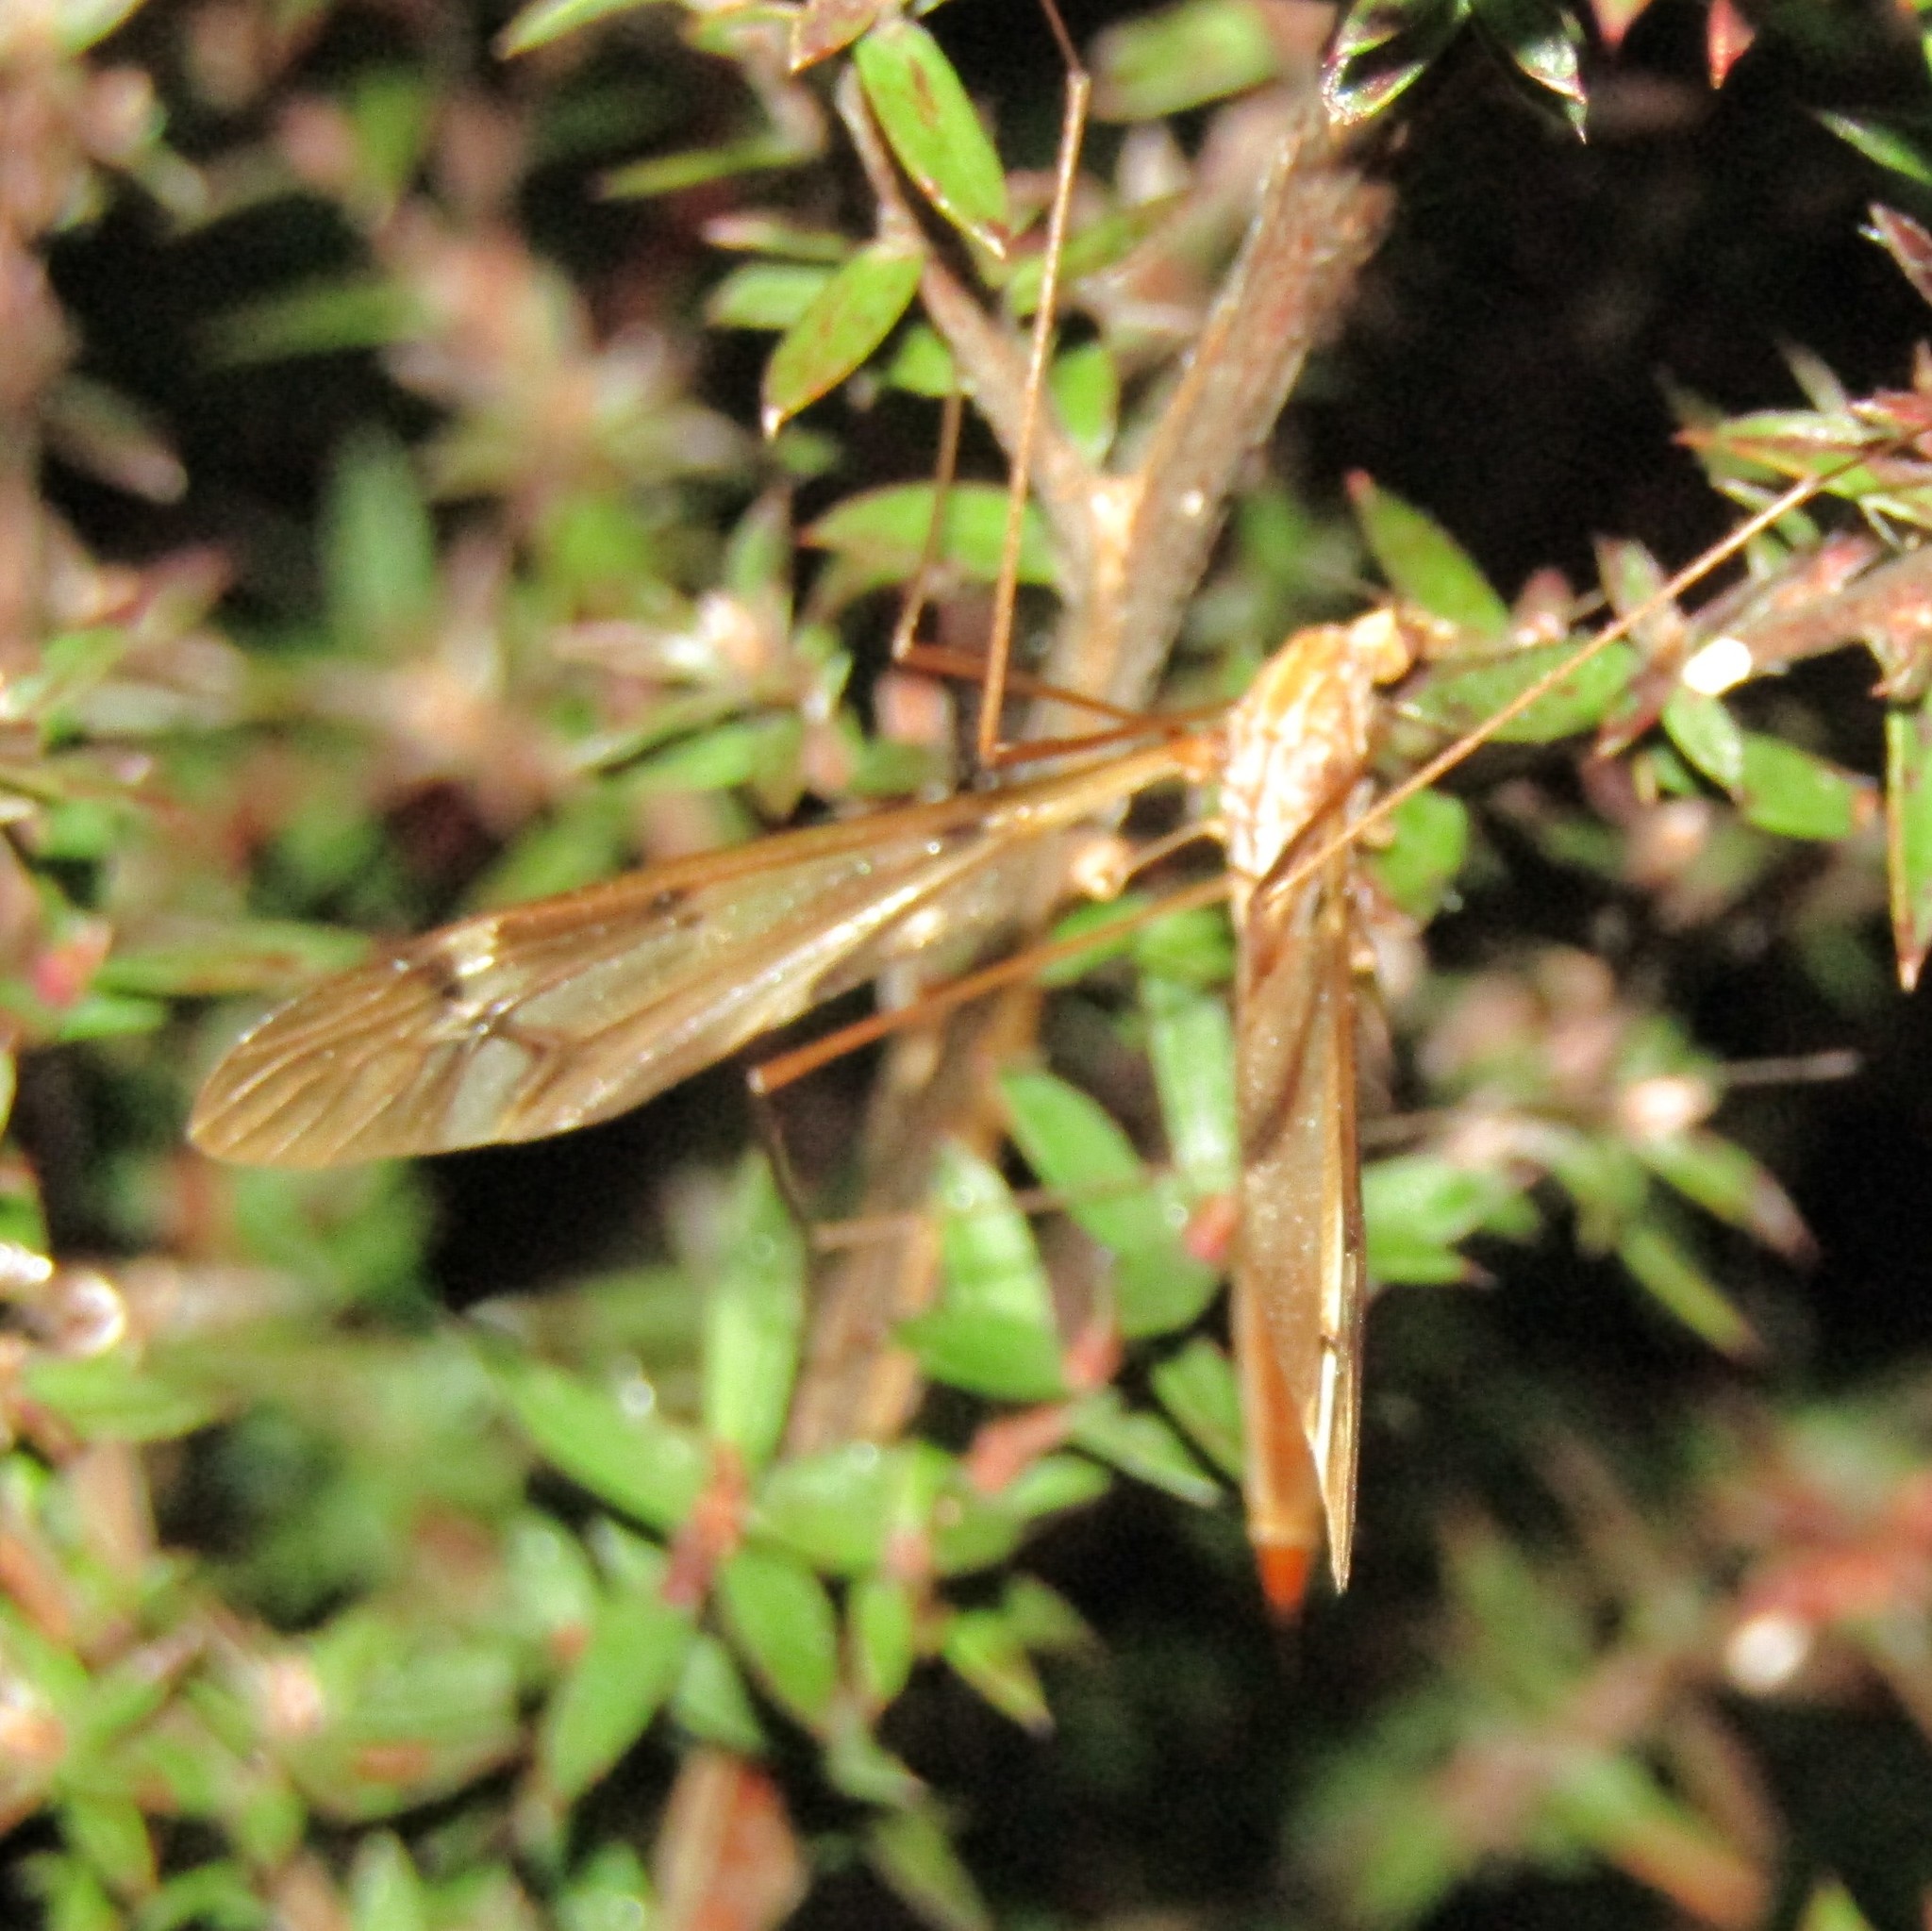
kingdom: Animalia
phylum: Arthropoda
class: Insecta
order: Diptera
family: Tipulidae
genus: Zelandotipula
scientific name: Zelandotipula fulva
